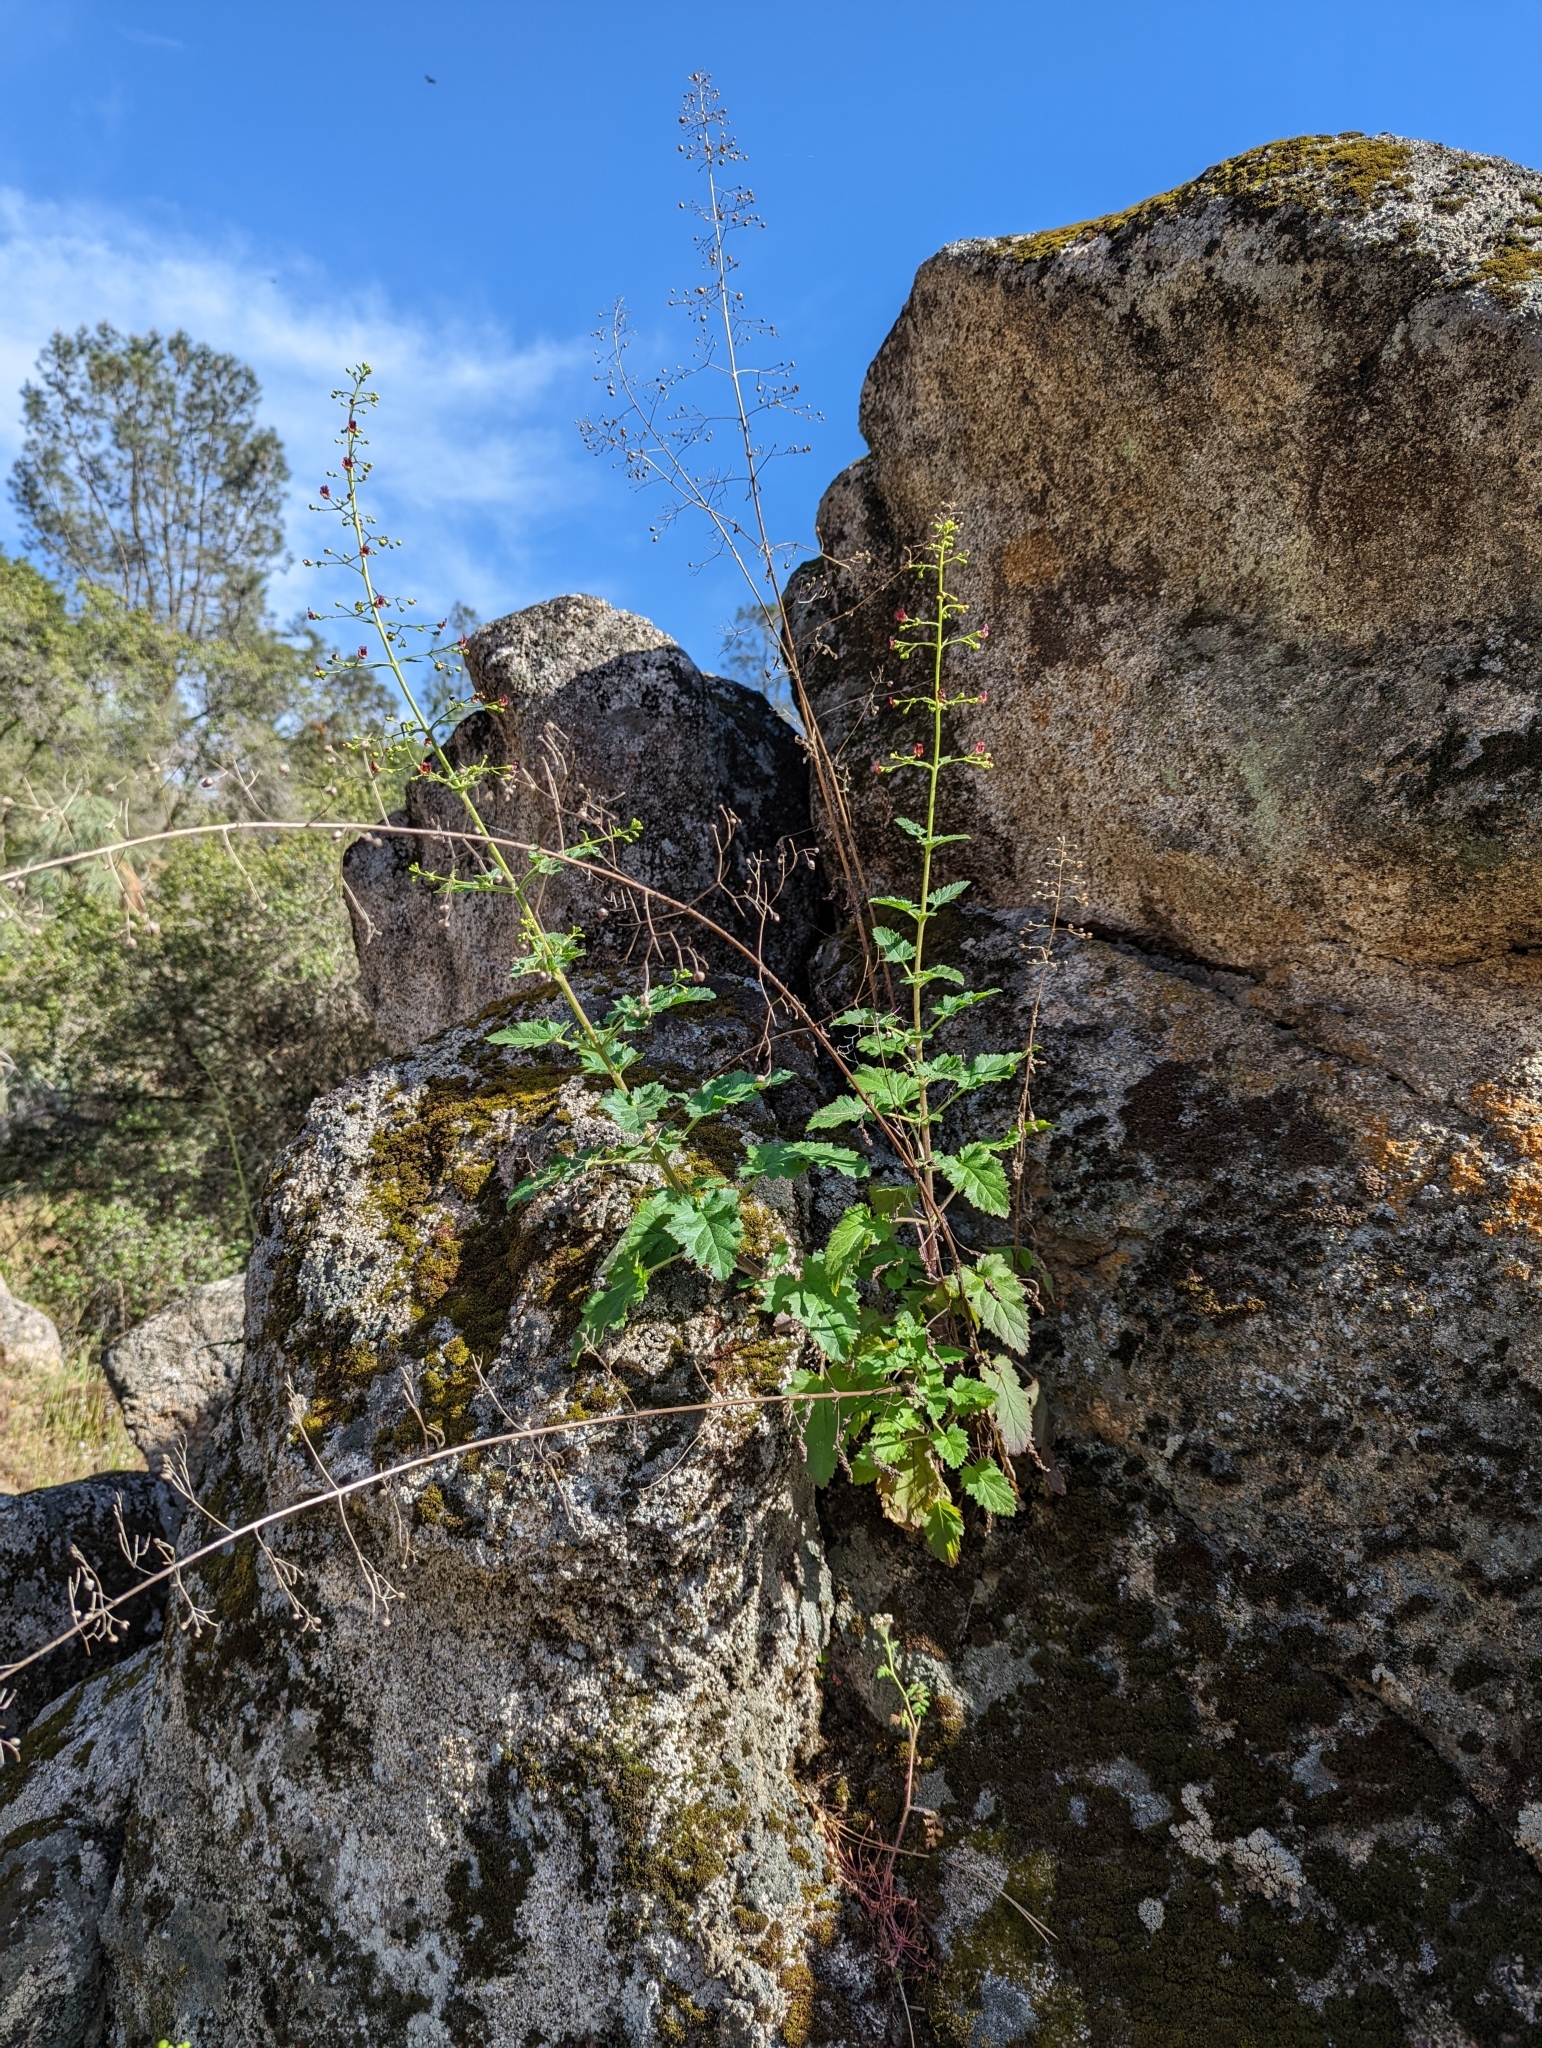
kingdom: Plantae
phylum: Tracheophyta
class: Magnoliopsida
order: Lamiales
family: Scrophulariaceae
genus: Scrophularia
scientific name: Scrophularia californica
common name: California figwort
